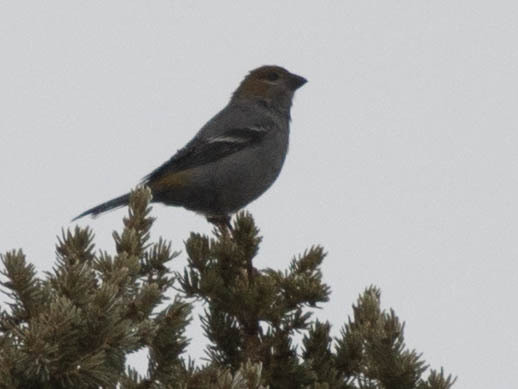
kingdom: Animalia
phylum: Chordata
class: Aves
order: Passeriformes
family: Fringillidae
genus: Pinicola
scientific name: Pinicola enucleator
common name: Pine grosbeak
